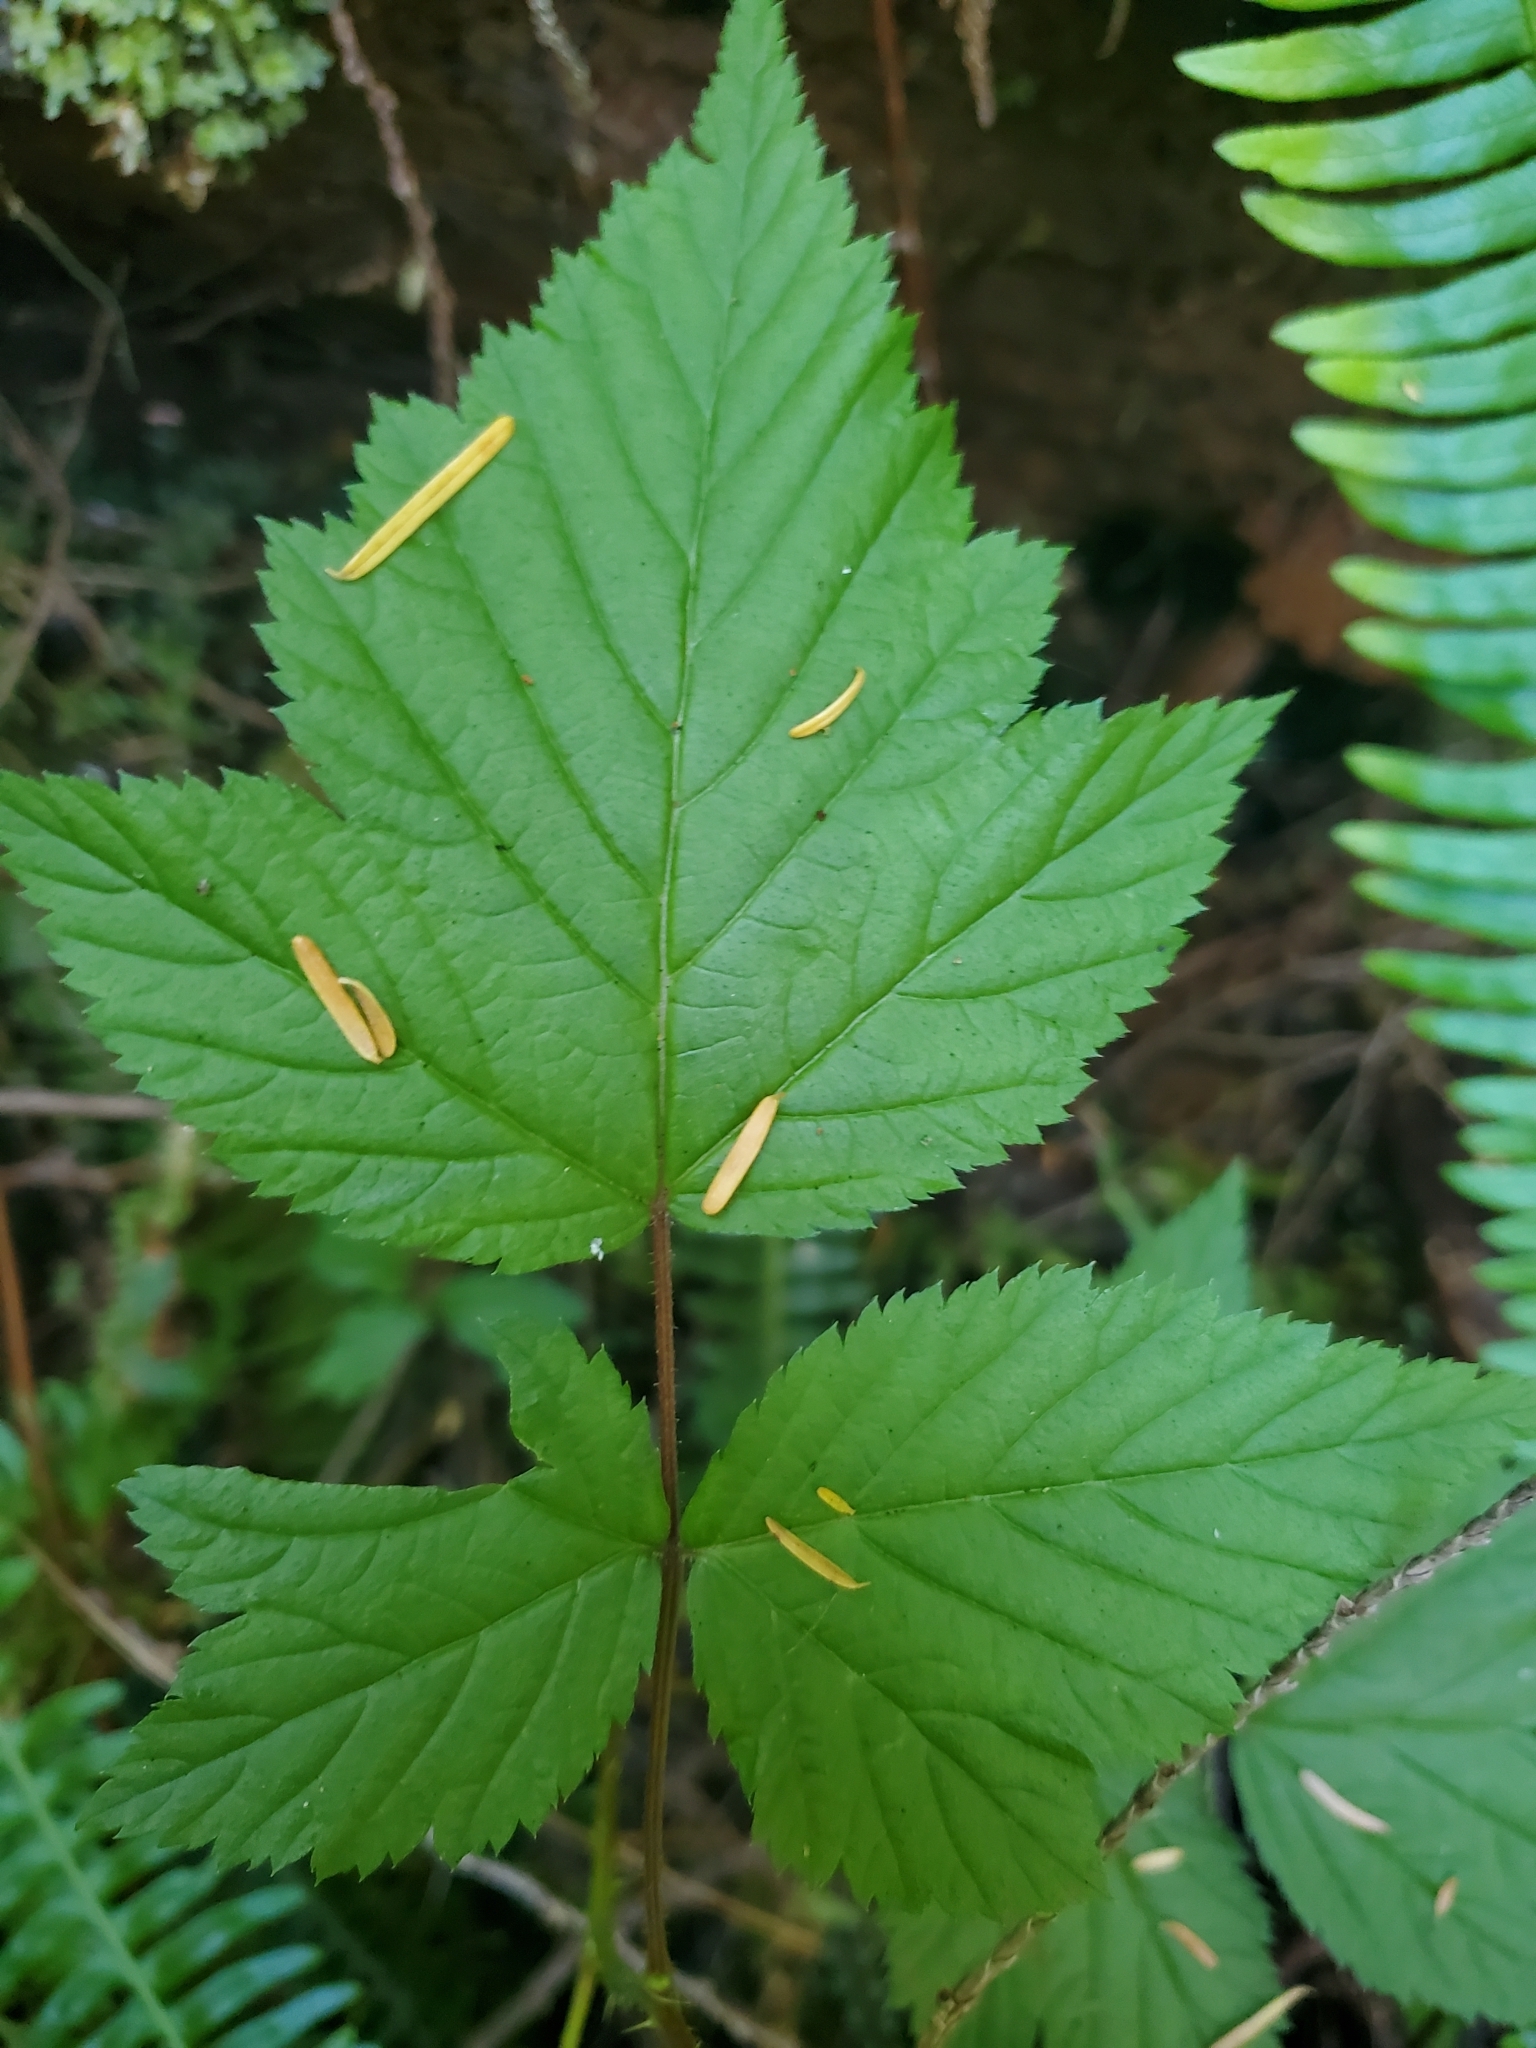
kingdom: Plantae
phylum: Tracheophyta
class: Magnoliopsida
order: Rosales
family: Rosaceae
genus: Rubus
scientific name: Rubus spectabilis
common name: Salmonberry
